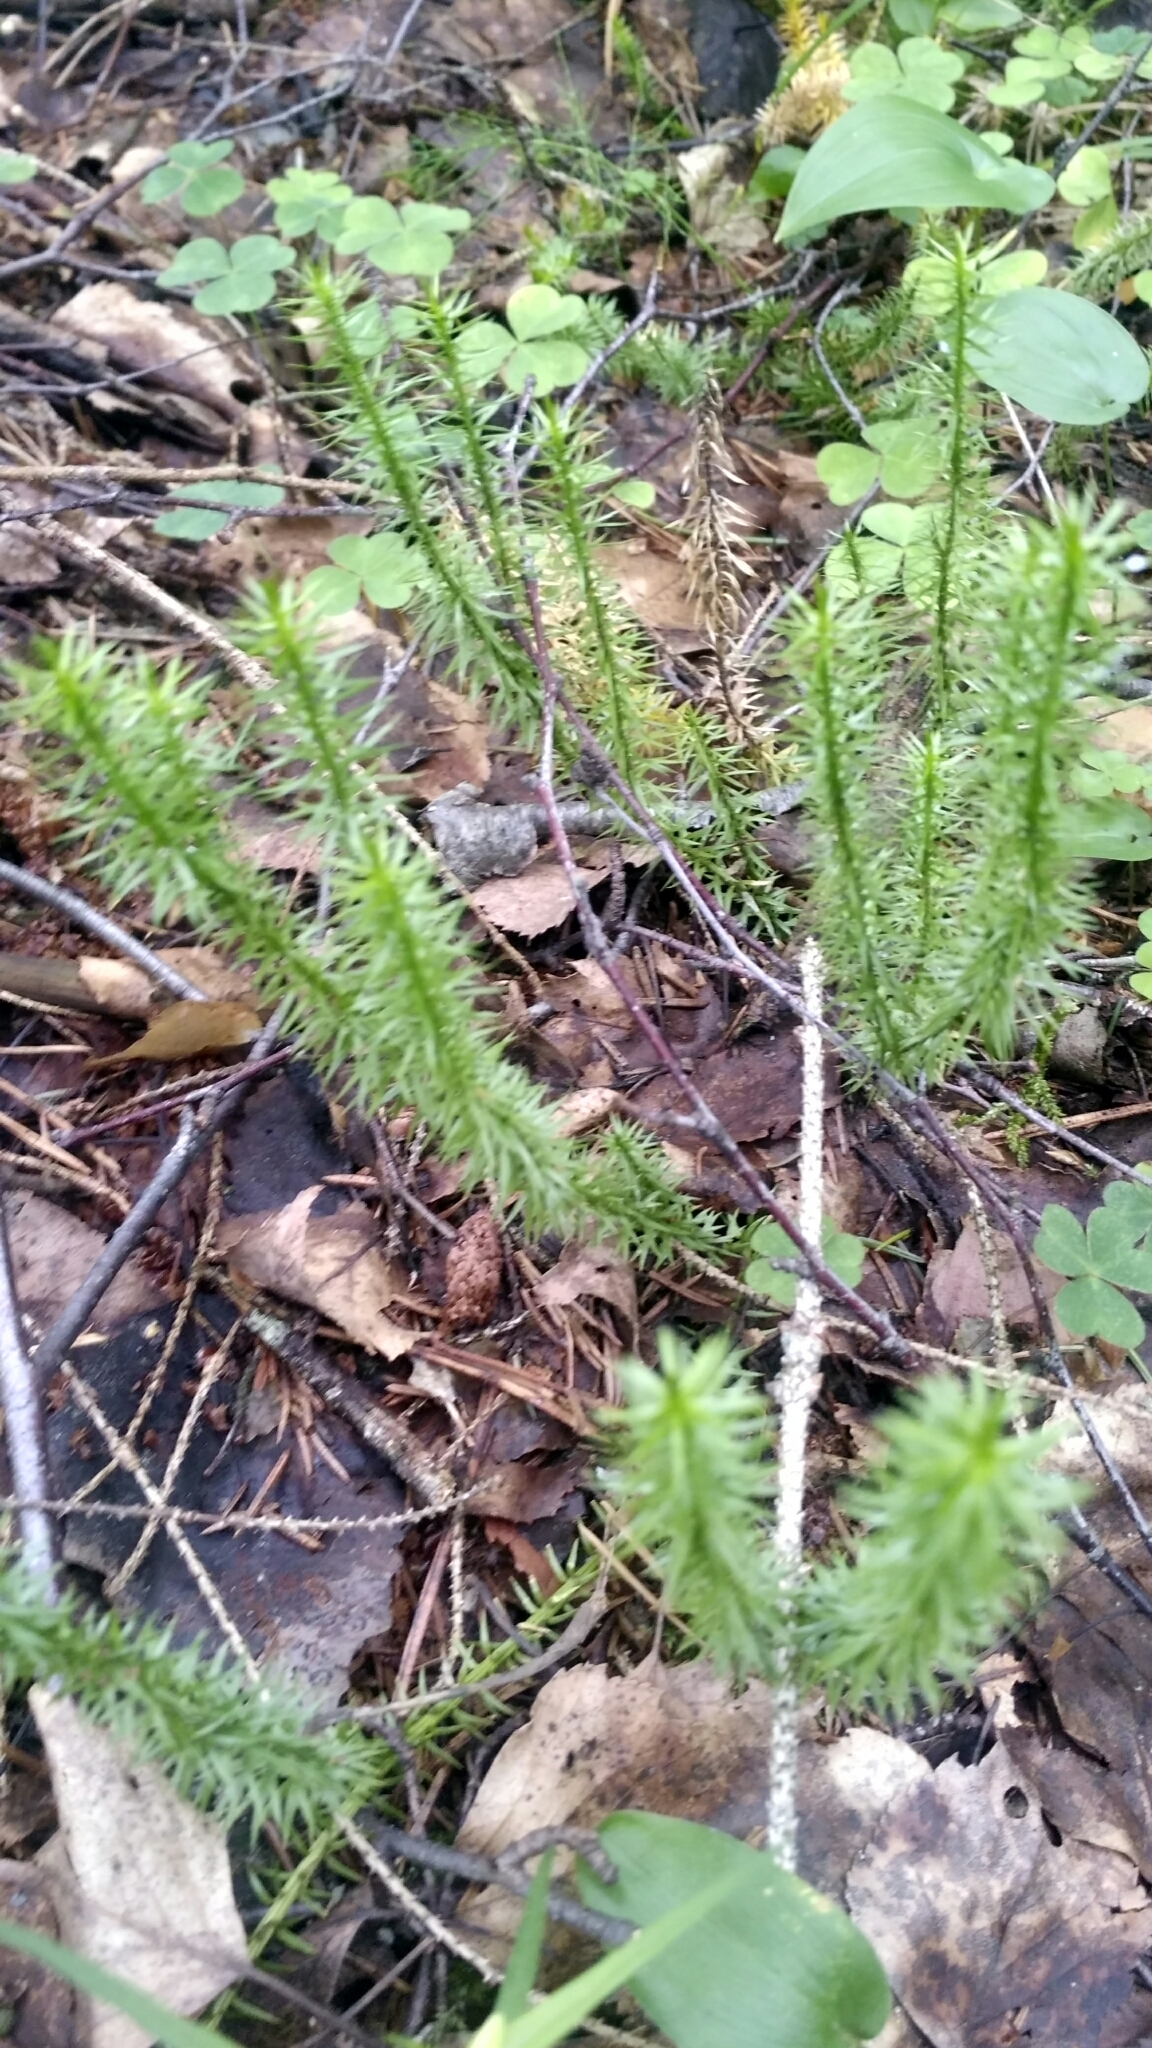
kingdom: Plantae
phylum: Tracheophyta
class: Lycopodiopsida
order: Lycopodiales
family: Lycopodiaceae
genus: Spinulum
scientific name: Spinulum annotinum
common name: Interrupted club-moss
